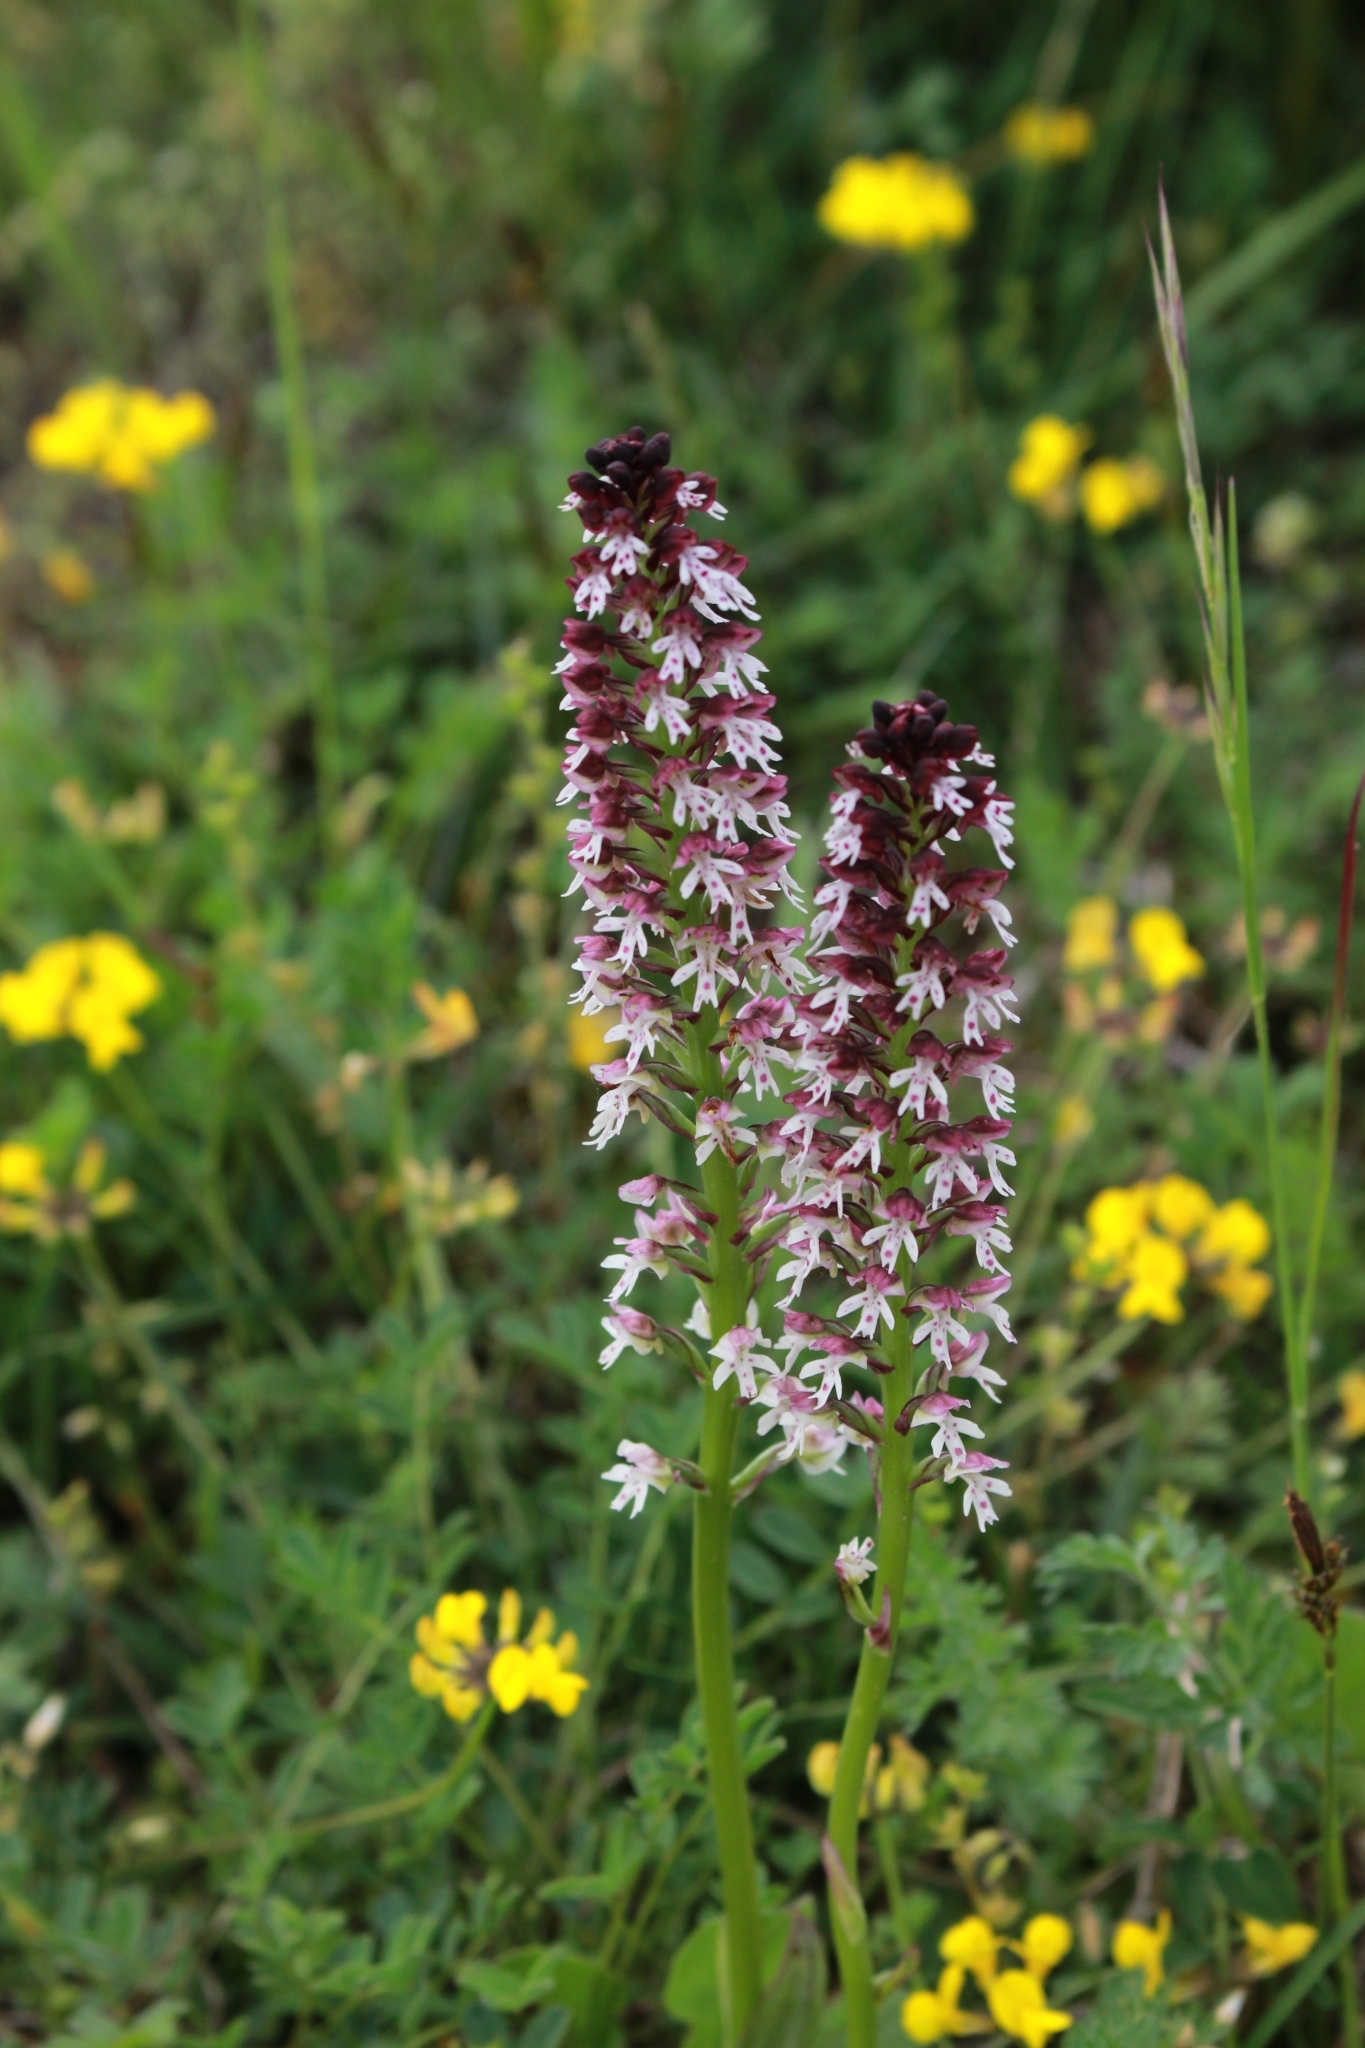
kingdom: Plantae
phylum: Tracheophyta
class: Liliopsida
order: Asparagales
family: Orchidaceae
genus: Neotinea
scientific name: Neotinea ustulata
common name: Burnt orchid
